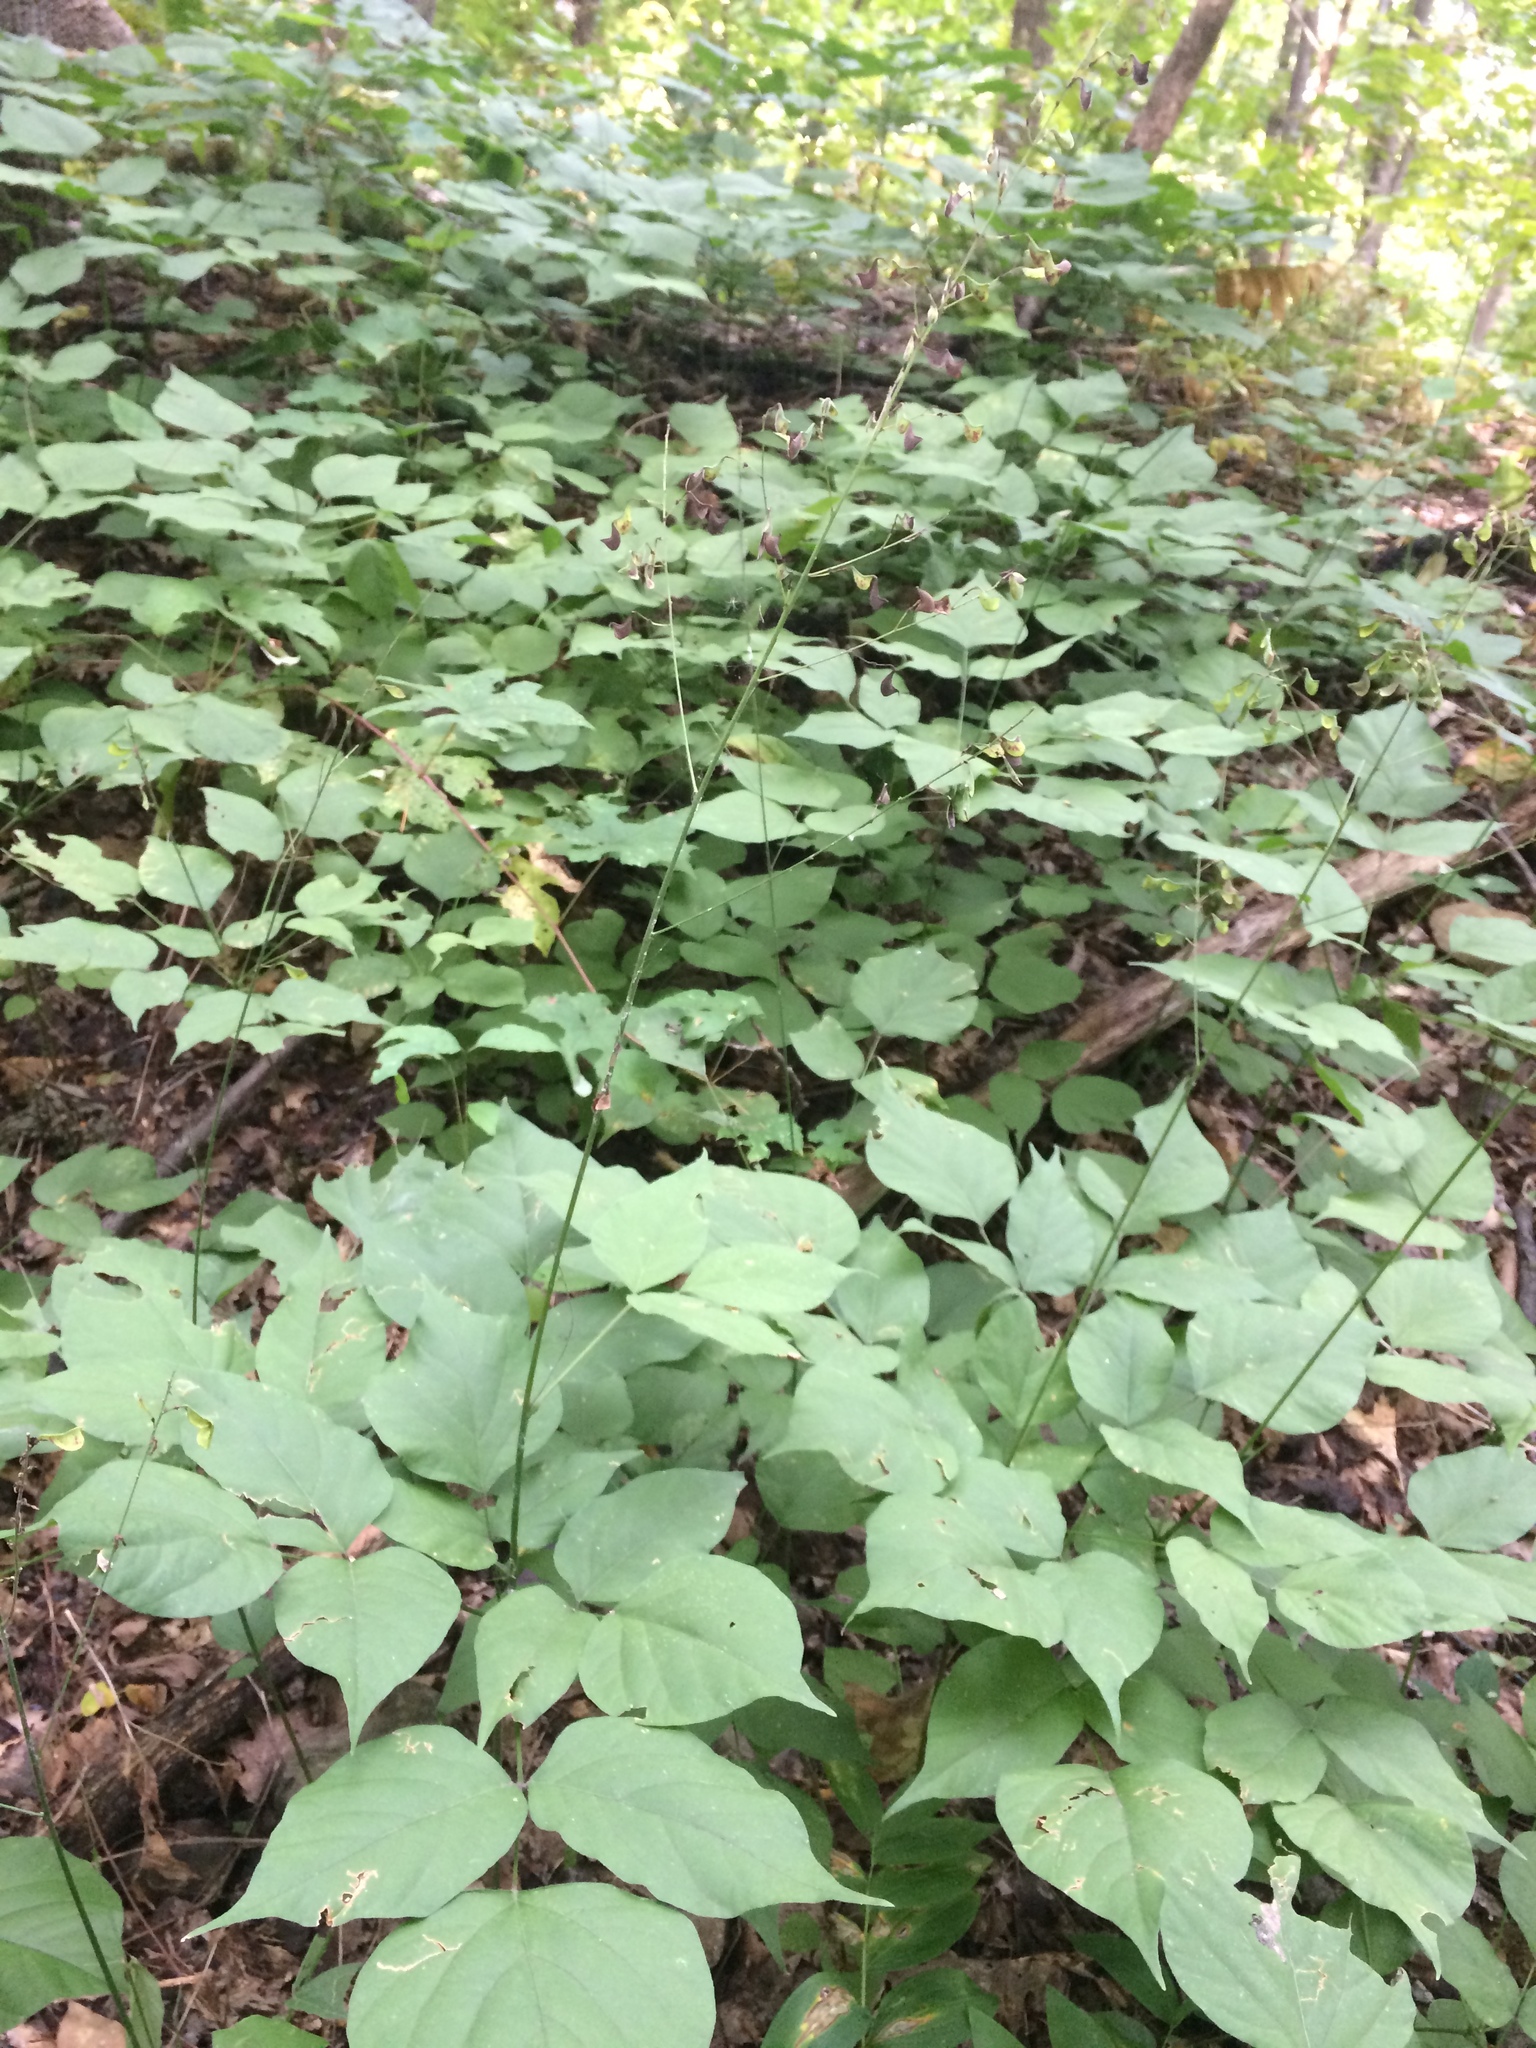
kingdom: Plantae
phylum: Tracheophyta
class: Magnoliopsida
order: Fabales
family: Fabaceae
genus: Hylodesmum
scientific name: Hylodesmum glutinosum
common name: Clustered-leaved tick-trefoil
